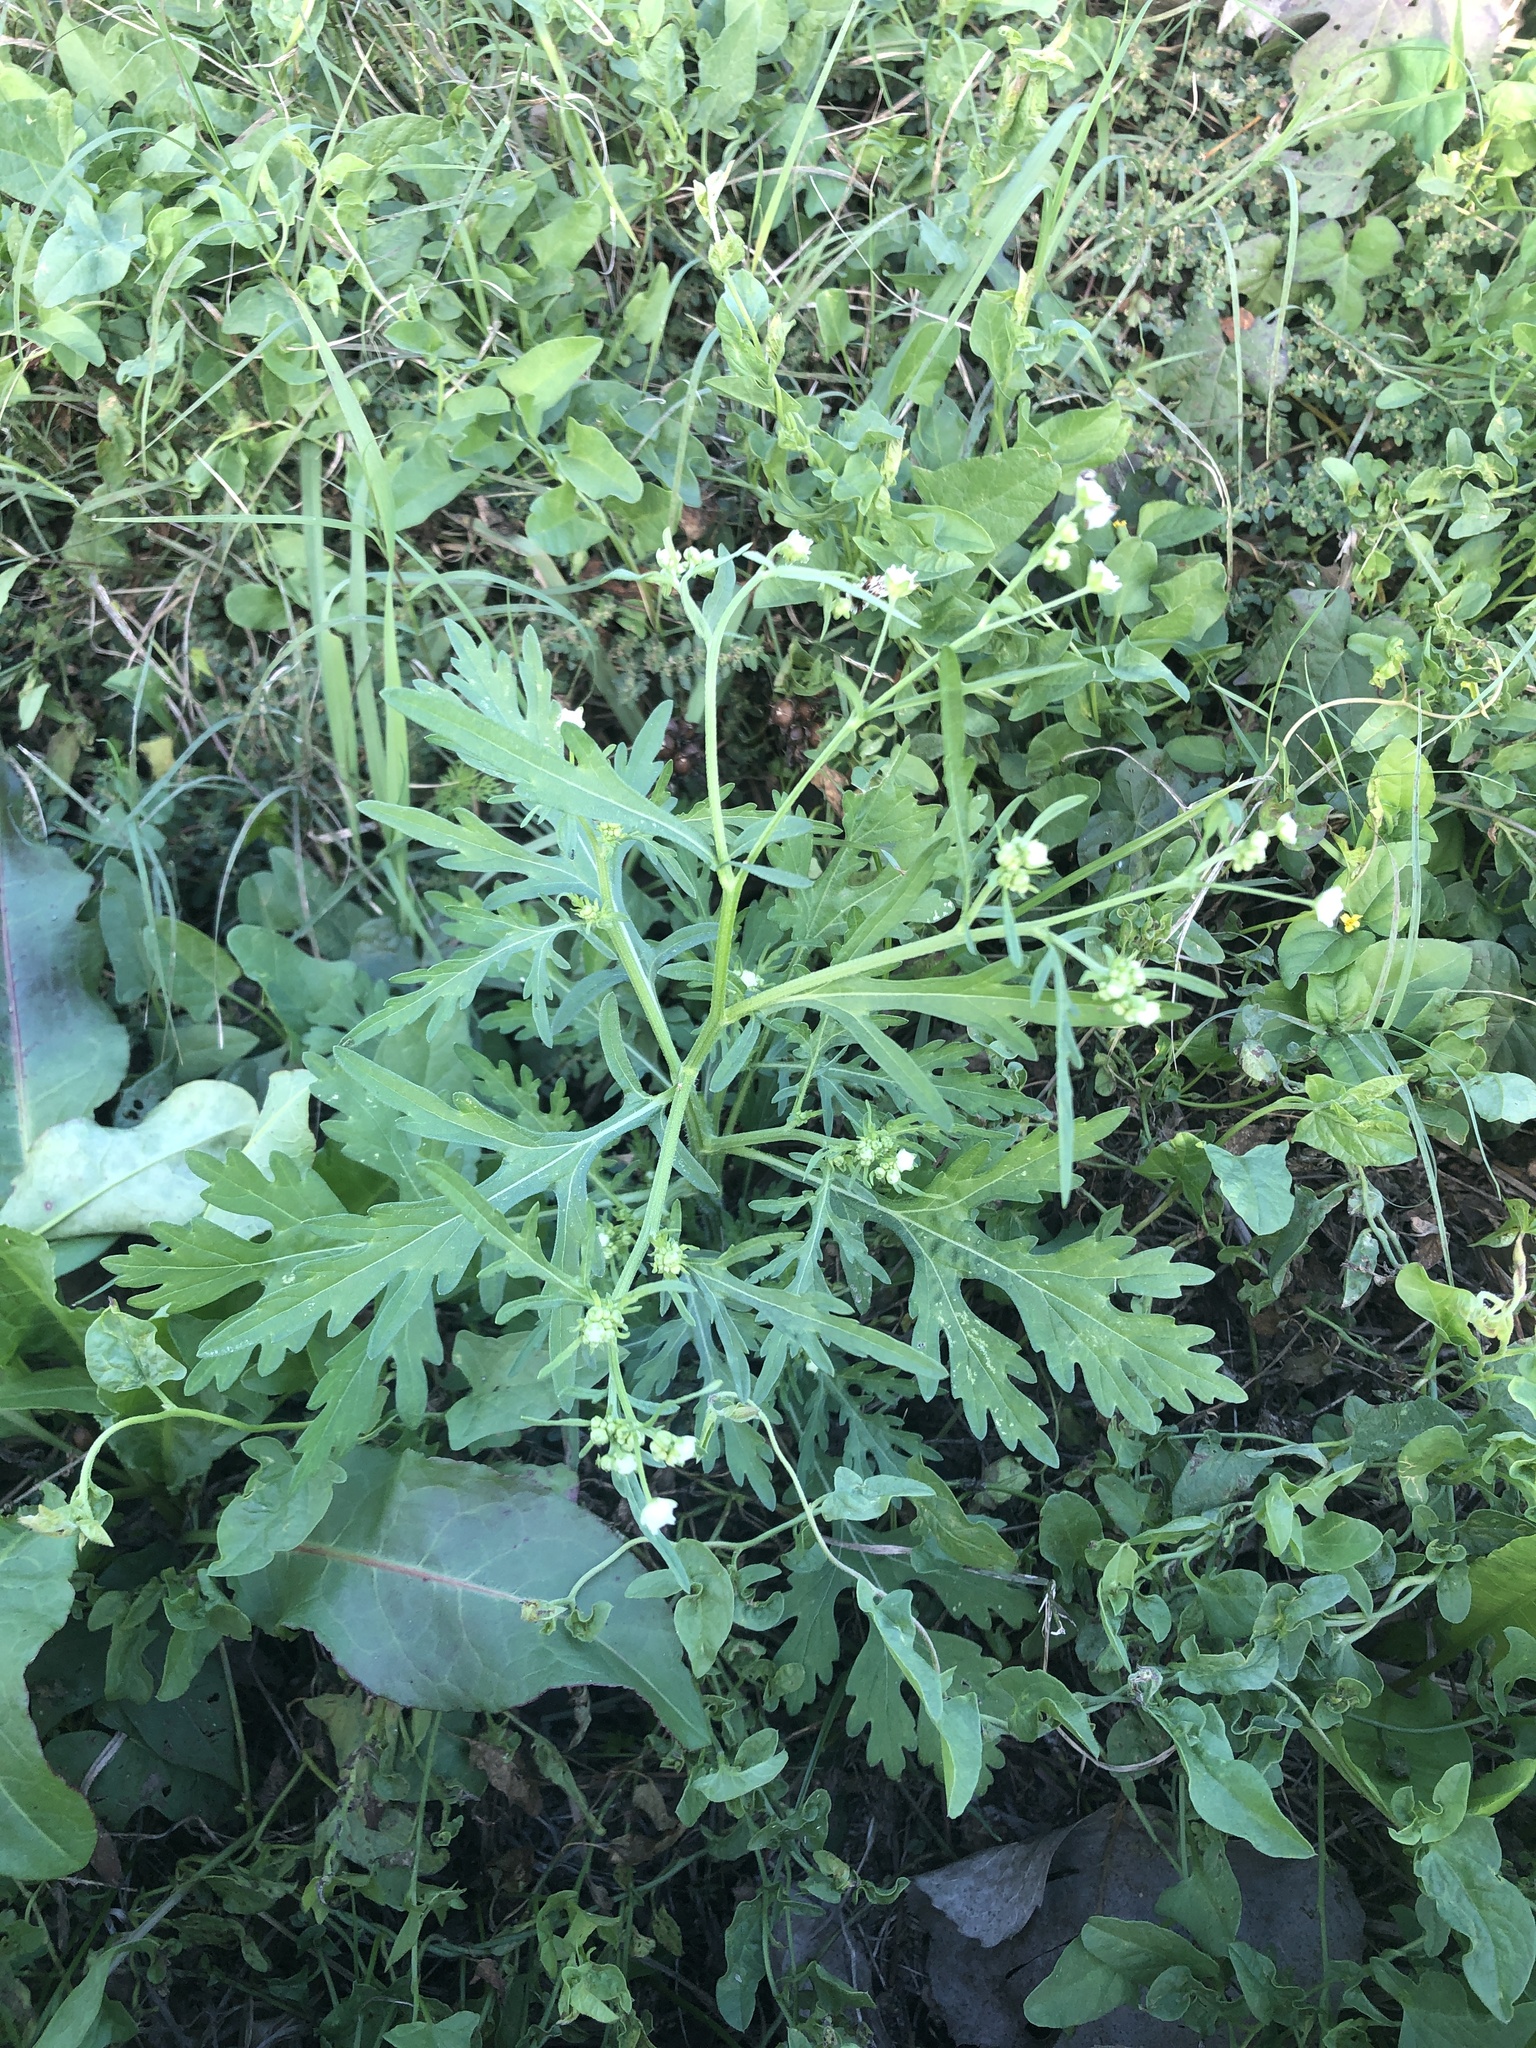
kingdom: Plantae
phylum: Tracheophyta
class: Magnoliopsida
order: Asterales
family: Asteraceae
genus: Parthenium
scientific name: Parthenium hysterophorus
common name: Santa maria feverfew
